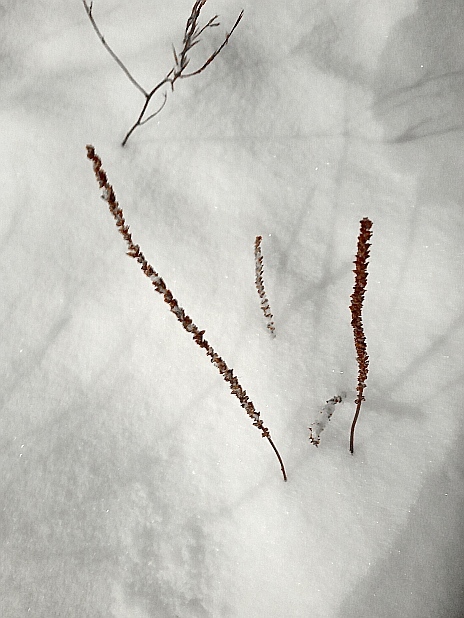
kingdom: Plantae
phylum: Tracheophyta
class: Magnoliopsida
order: Lamiales
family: Plantaginaceae
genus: Plantago
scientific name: Plantago major
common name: Common plantain
